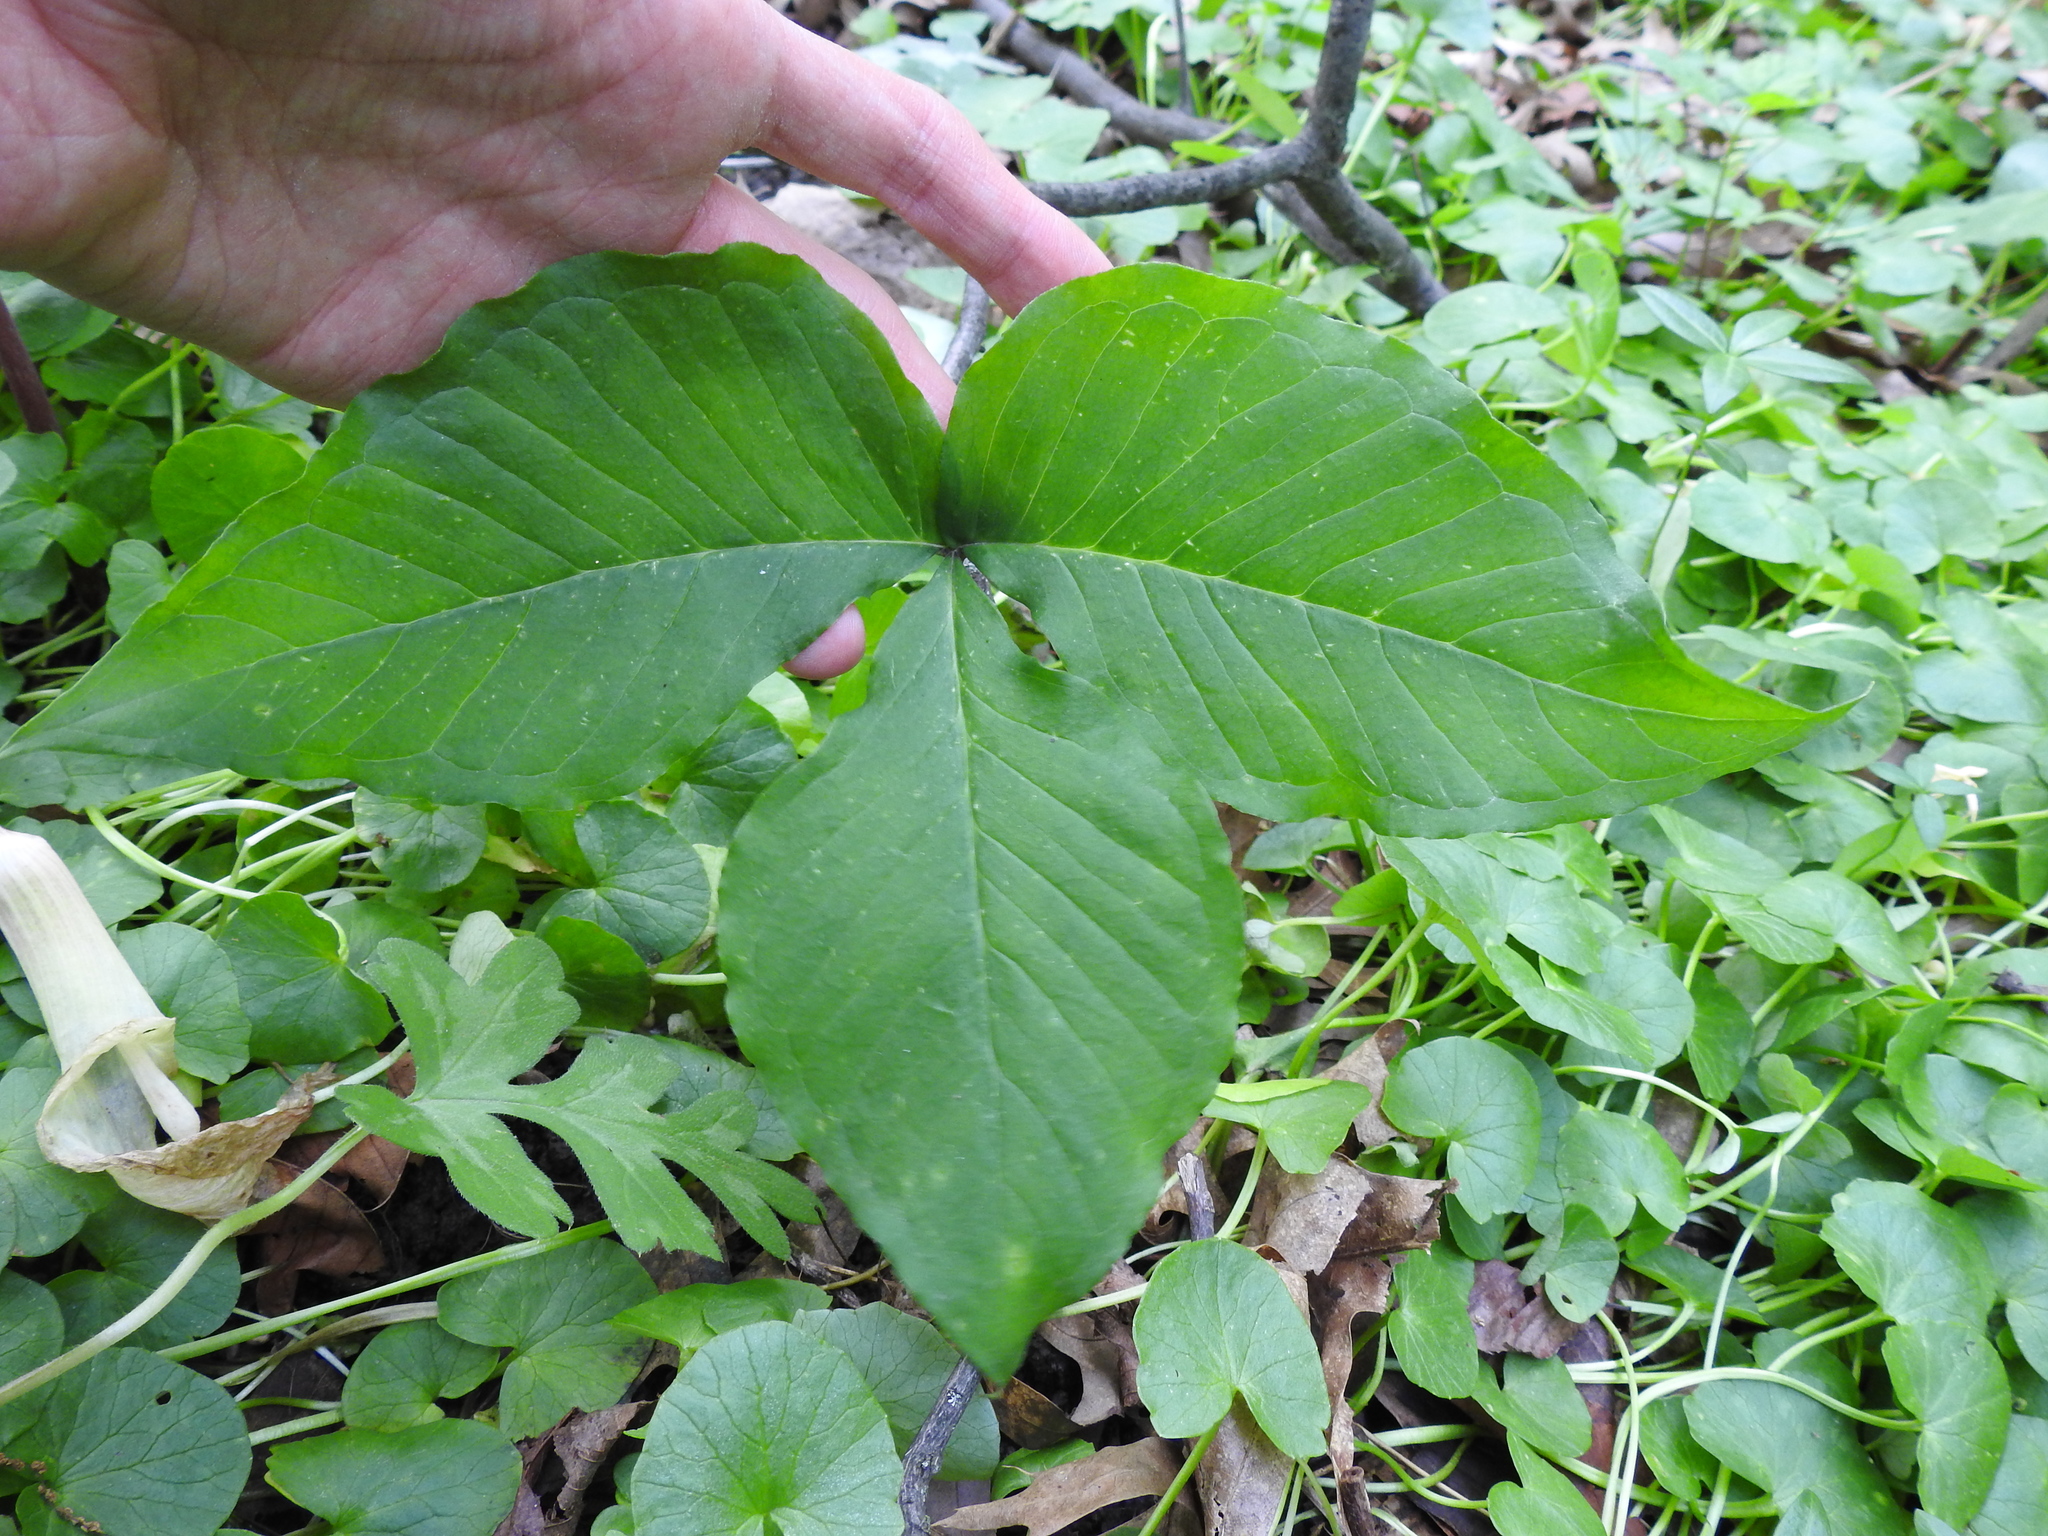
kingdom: Plantae
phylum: Tracheophyta
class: Liliopsida
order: Alismatales
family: Araceae
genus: Arisaema
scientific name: Arisaema triphyllum
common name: Jack-in-the-pulpit
